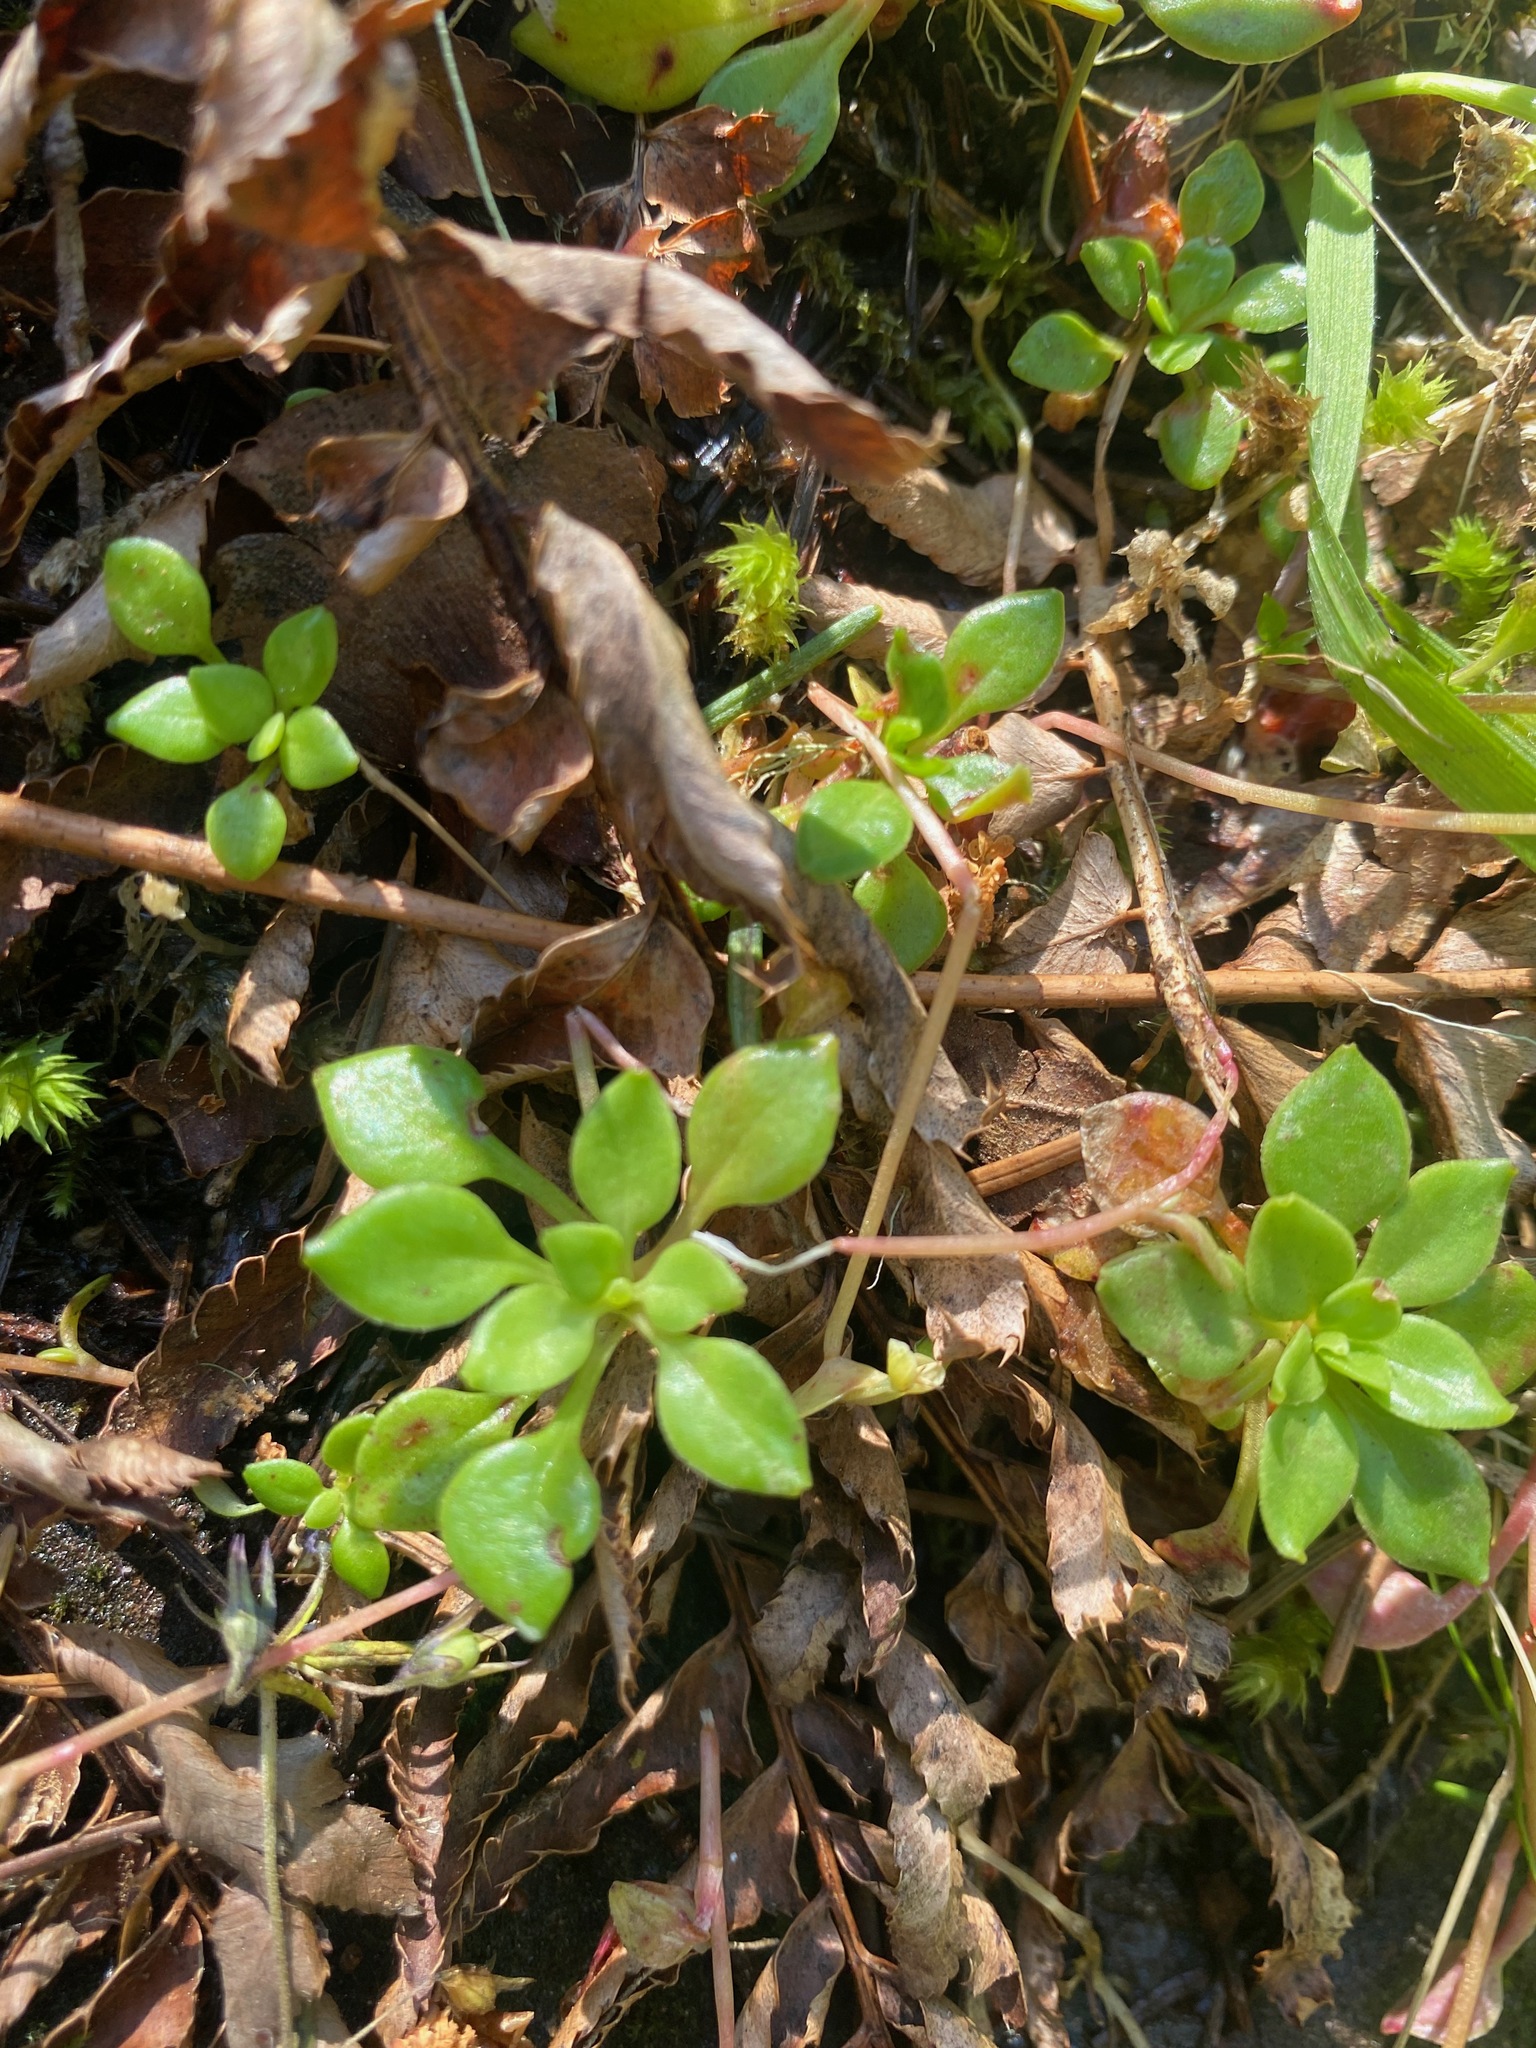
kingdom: Plantae
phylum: Tracheophyta
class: Magnoliopsida
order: Caryophyllales
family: Montiaceae
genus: Montia
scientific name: Montia parvifolia
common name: Small-leaved blinks
